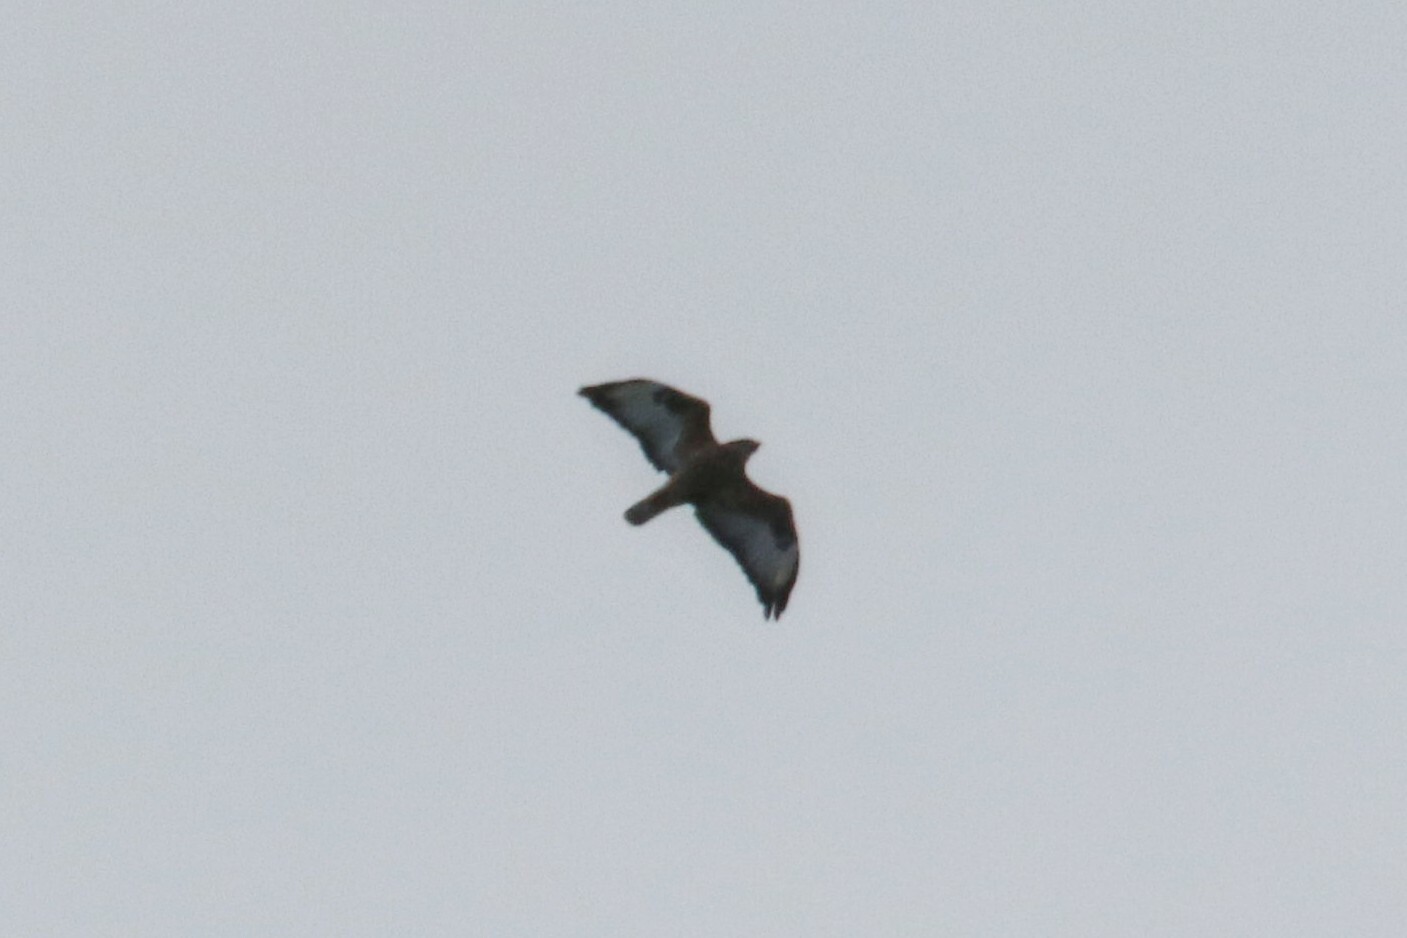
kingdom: Animalia
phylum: Chordata
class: Aves
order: Accipitriformes
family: Accipitridae
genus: Buteo
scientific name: Buteo buteo
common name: Common buzzard
